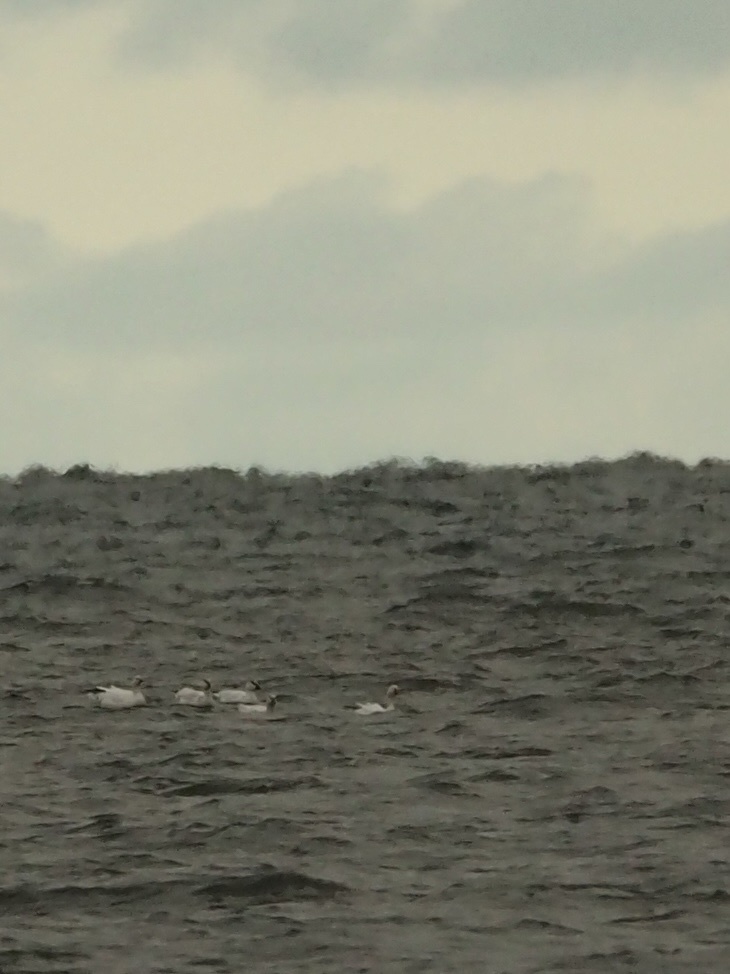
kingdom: Animalia
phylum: Chordata
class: Aves
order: Anseriformes
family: Anatidae
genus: Anser
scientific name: Anser caerulescens
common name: Snow goose
